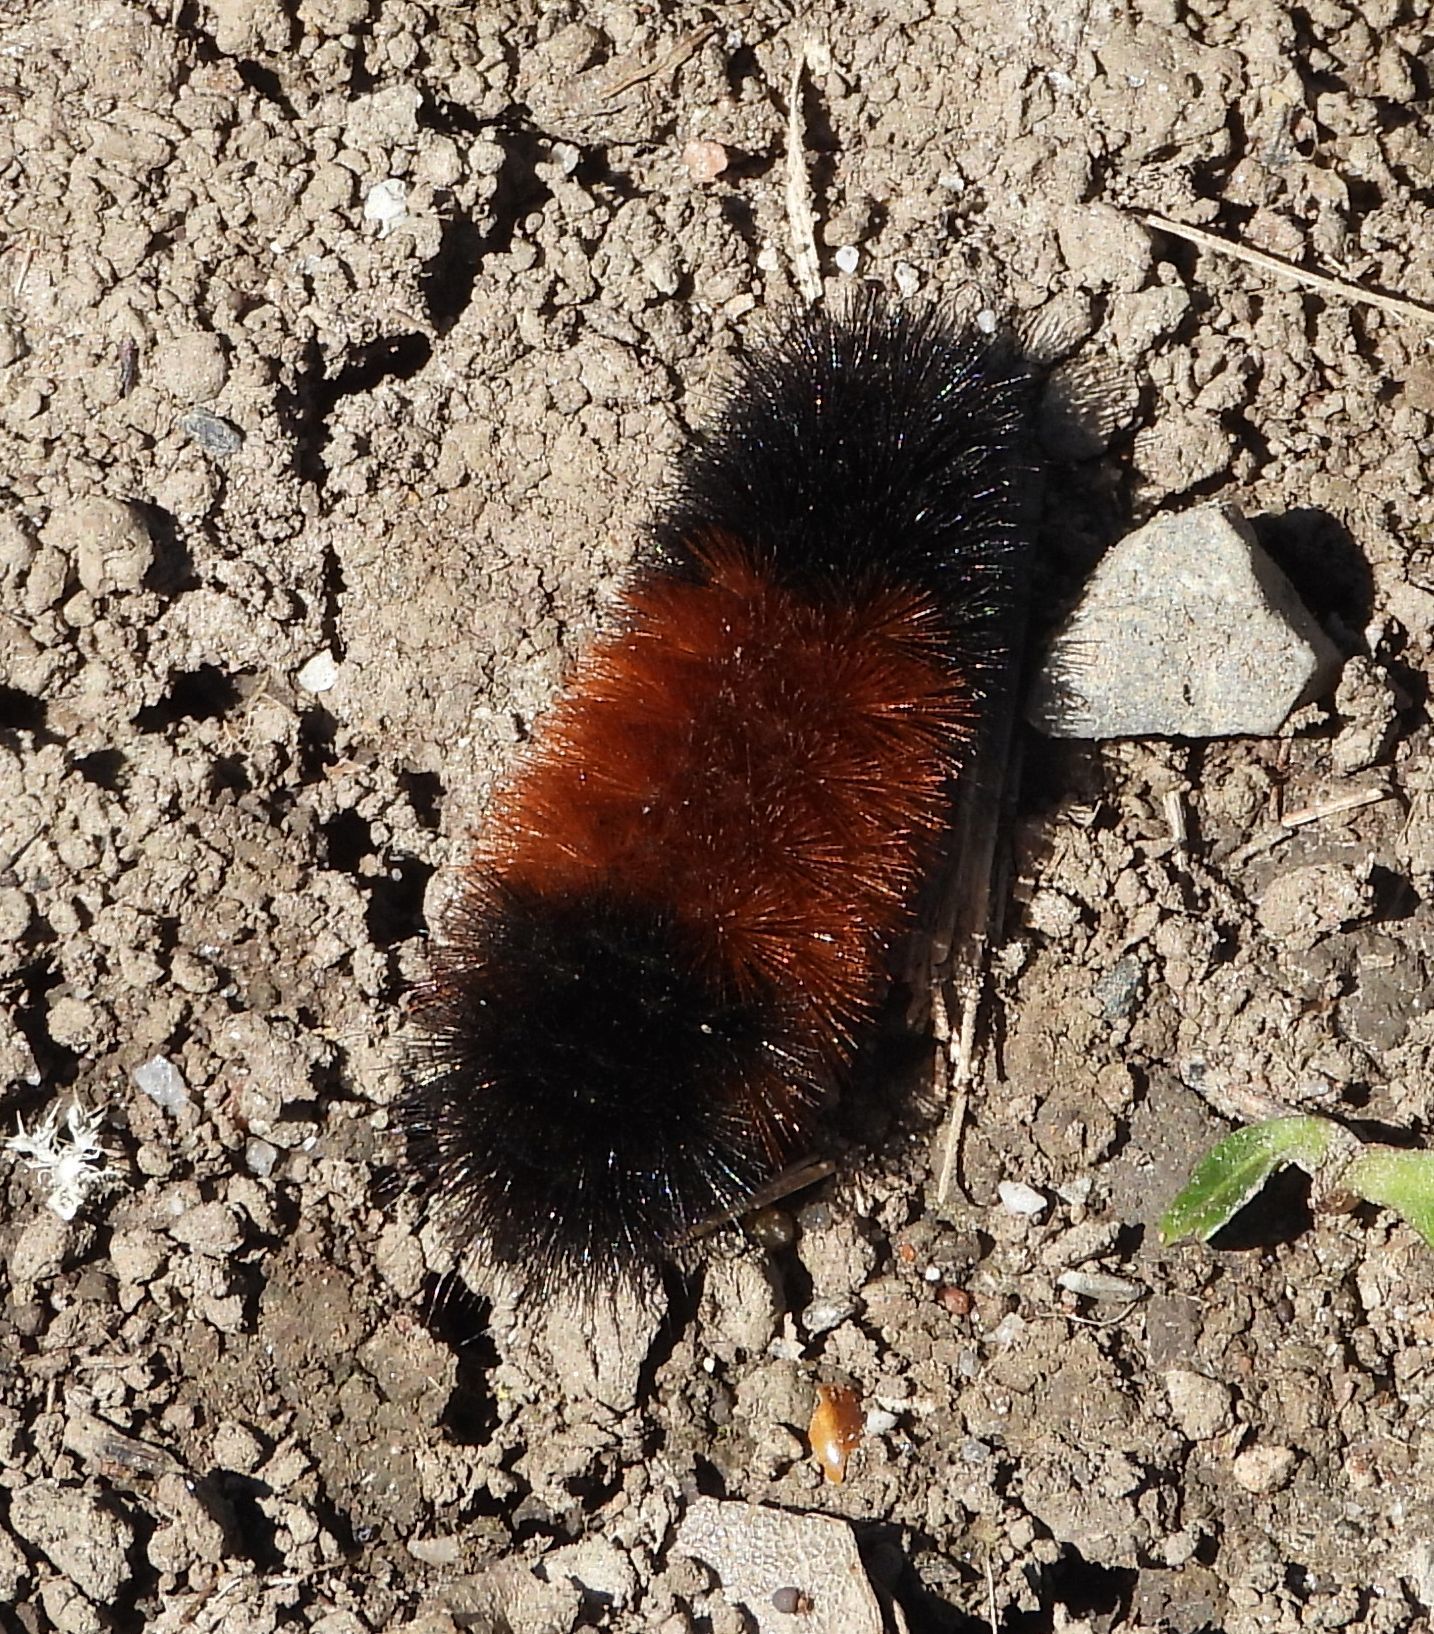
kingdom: Animalia
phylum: Arthropoda
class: Insecta
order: Lepidoptera
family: Erebidae
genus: Pyrrharctia
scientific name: Pyrrharctia isabella
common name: Isabella tiger moth
